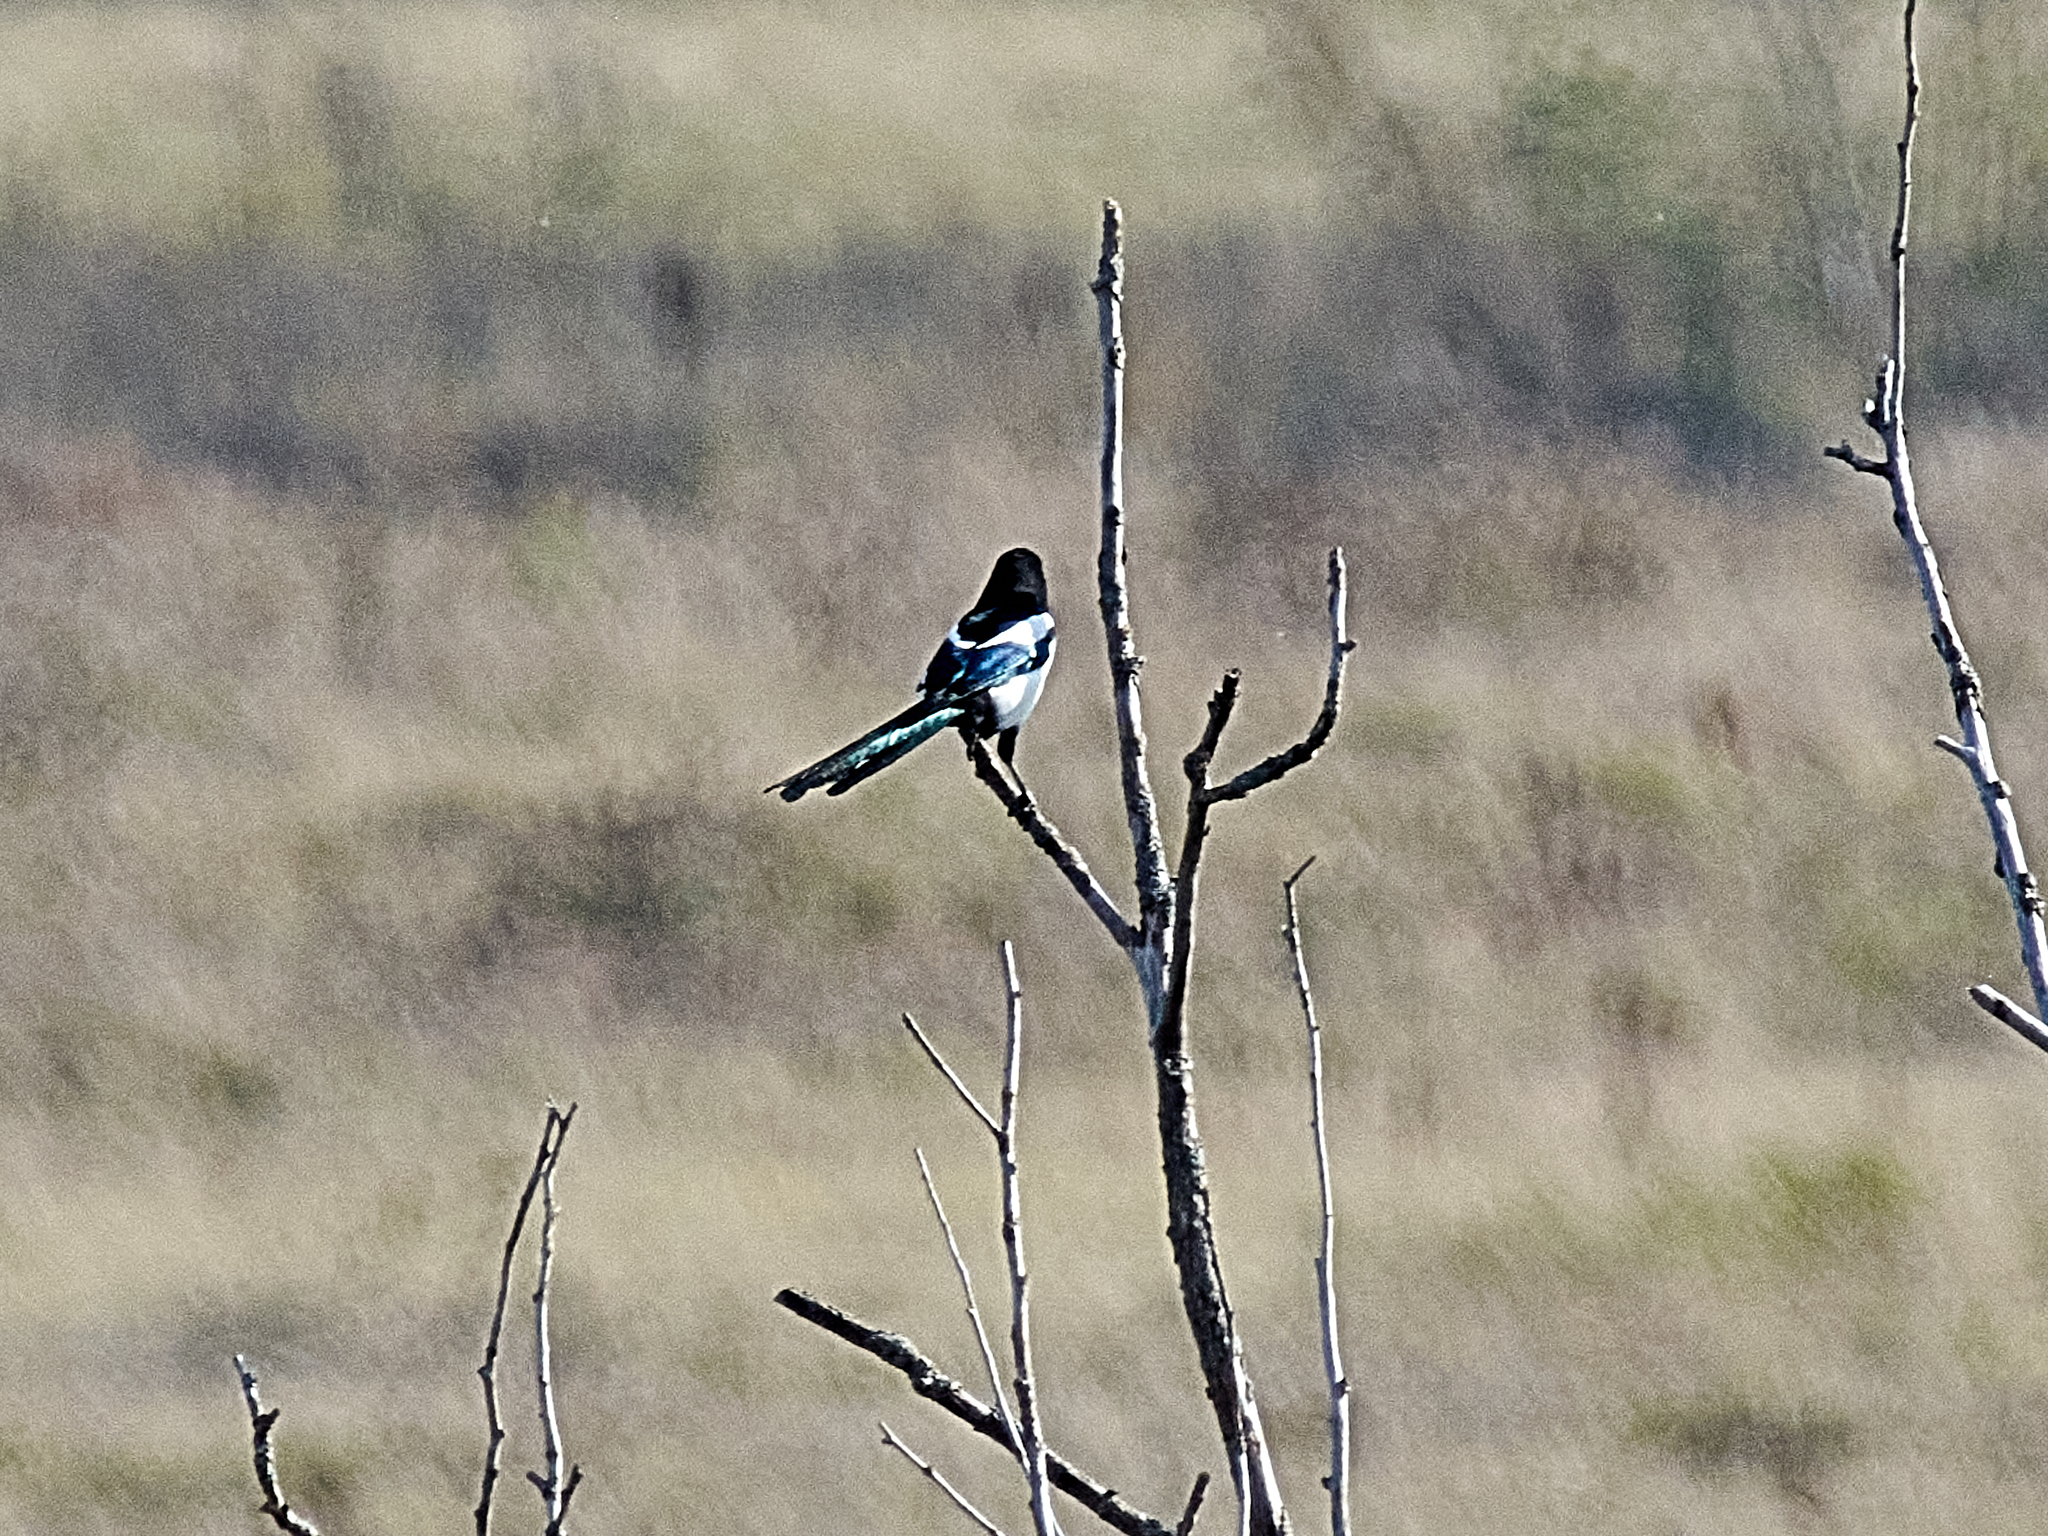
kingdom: Animalia
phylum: Chordata
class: Aves
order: Passeriformes
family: Corvidae
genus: Pica
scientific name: Pica pica
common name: Eurasian magpie
